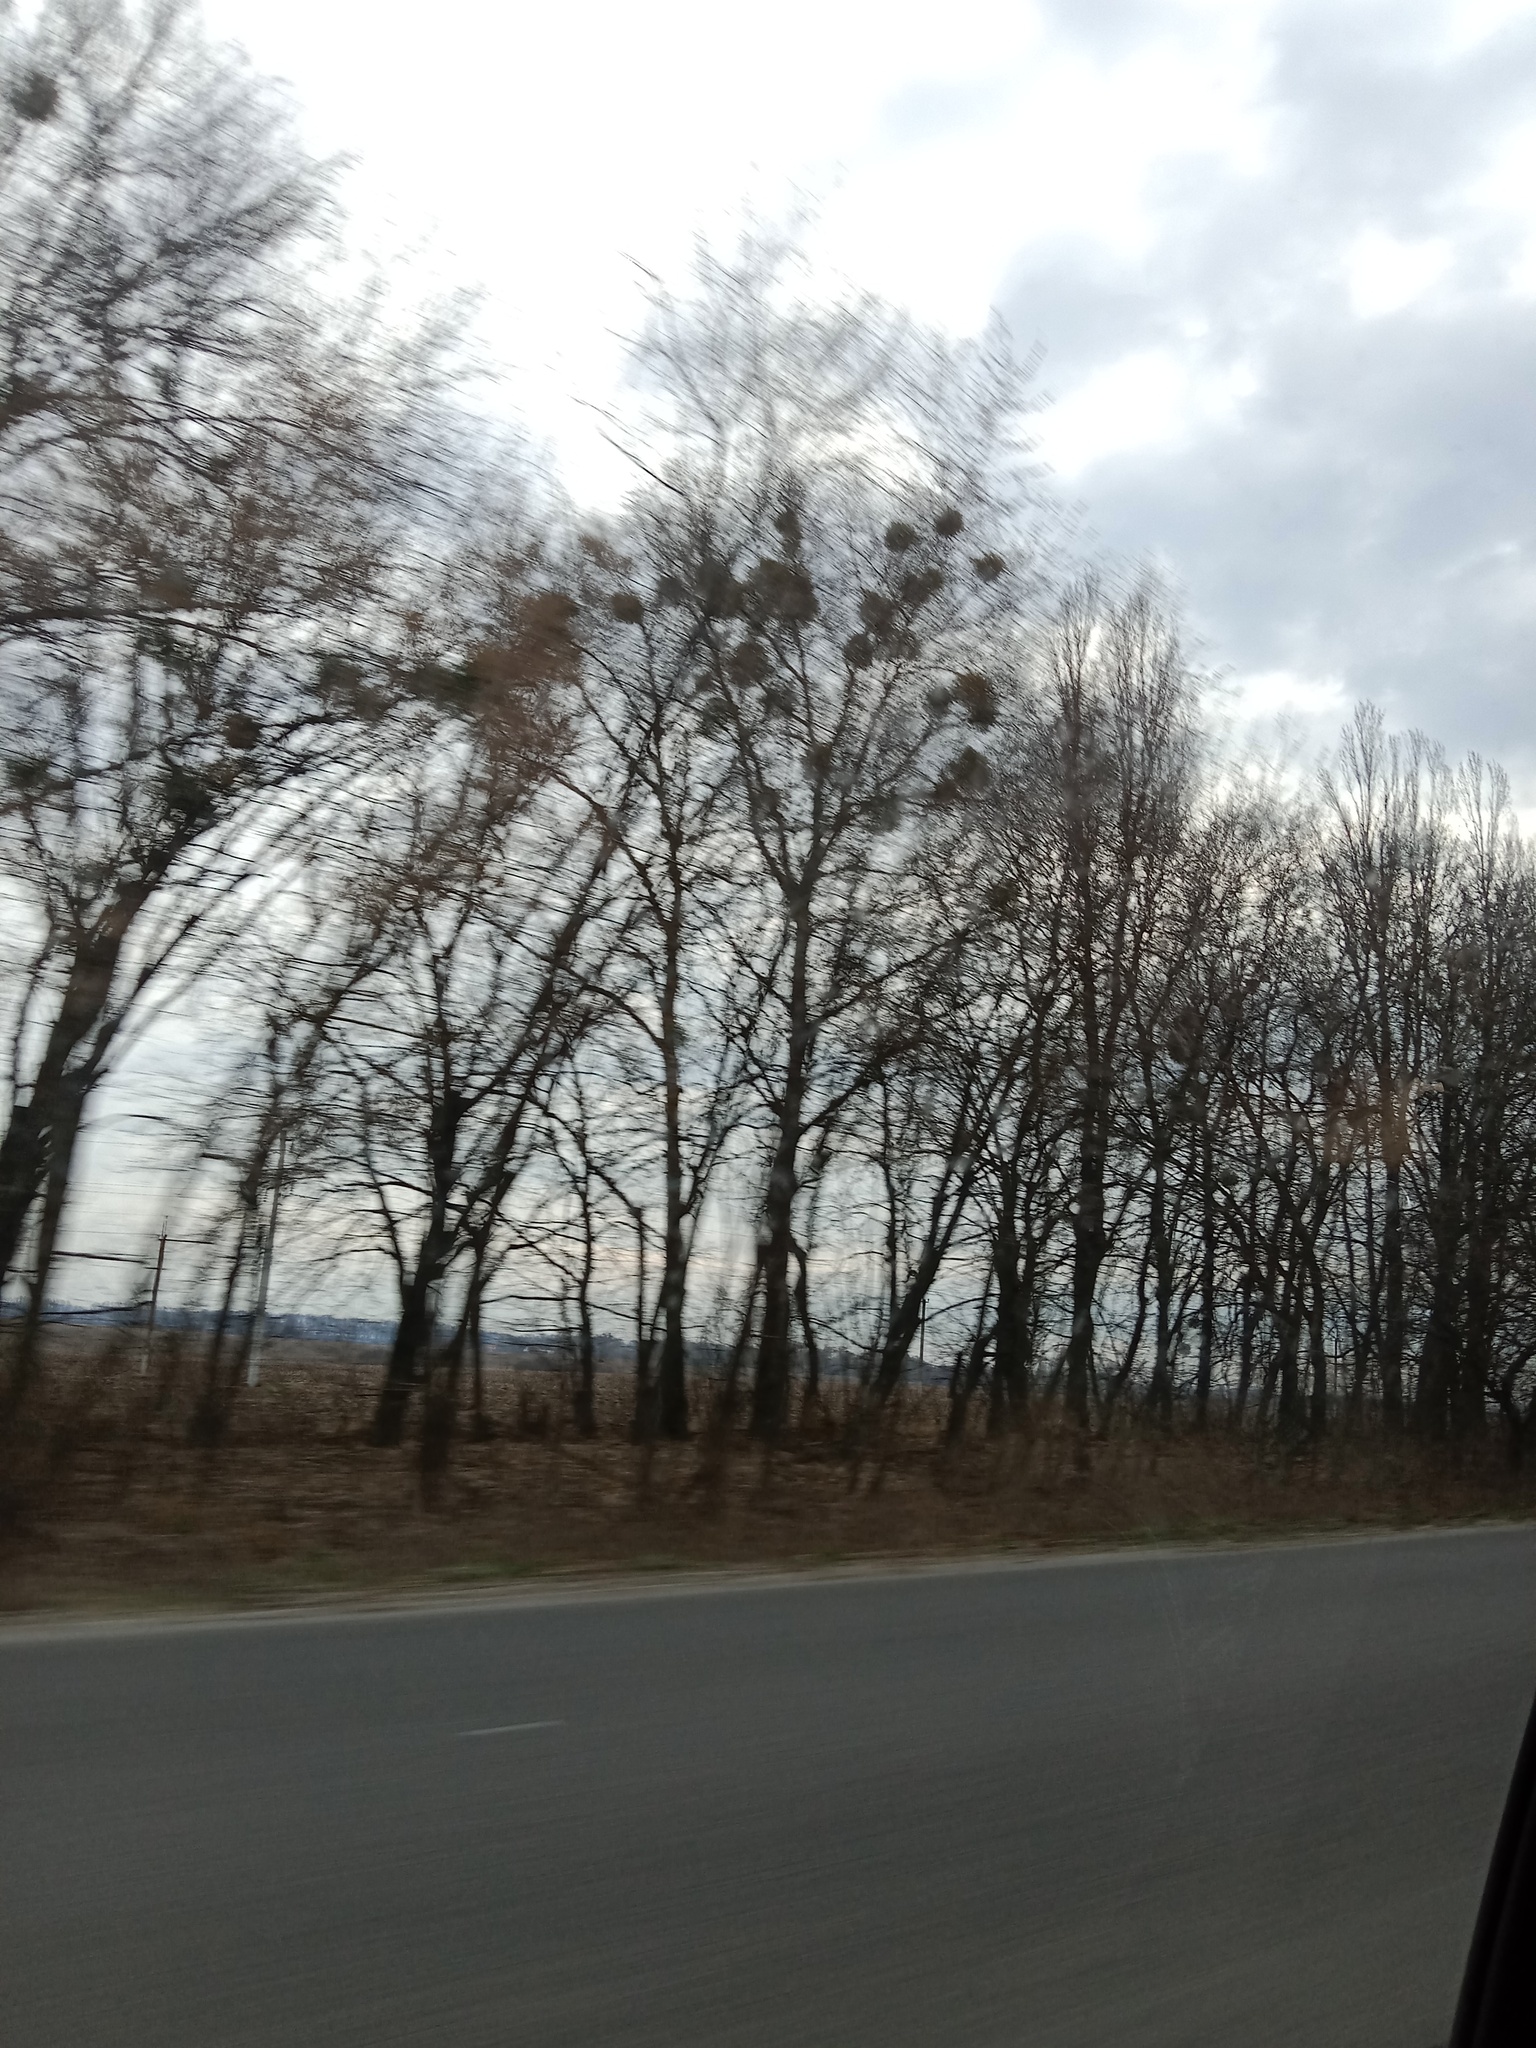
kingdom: Plantae
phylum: Tracheophyta
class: Magnoliopsida
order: Santalales
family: Viscaceae
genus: Viscum
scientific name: Viscum album
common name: Mistletoe
